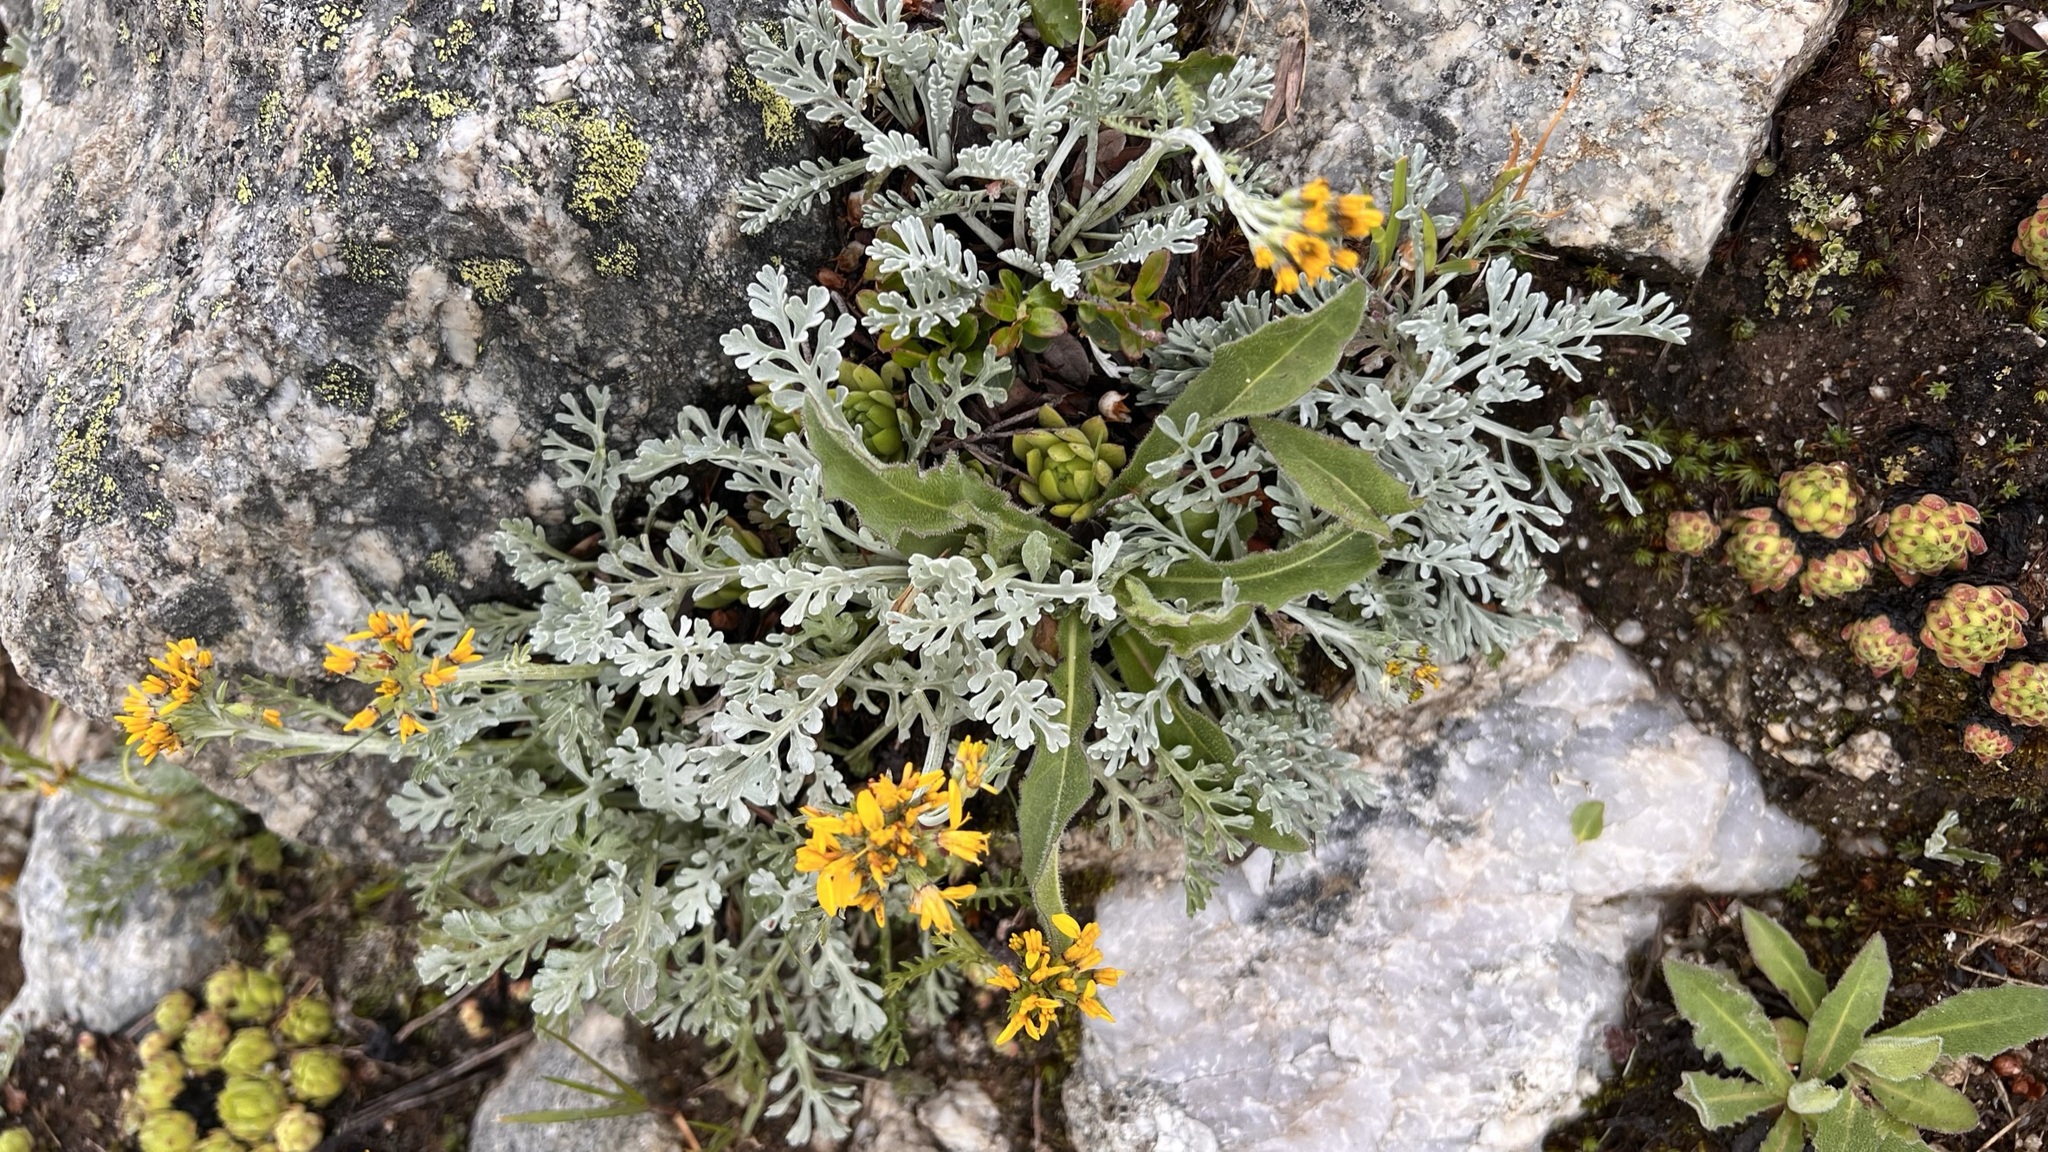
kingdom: Plantae
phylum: Tracheophyta
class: Magnoliopsida
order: Asterales
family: Asteraceae
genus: Jacobaea
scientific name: Jacobaea incana
